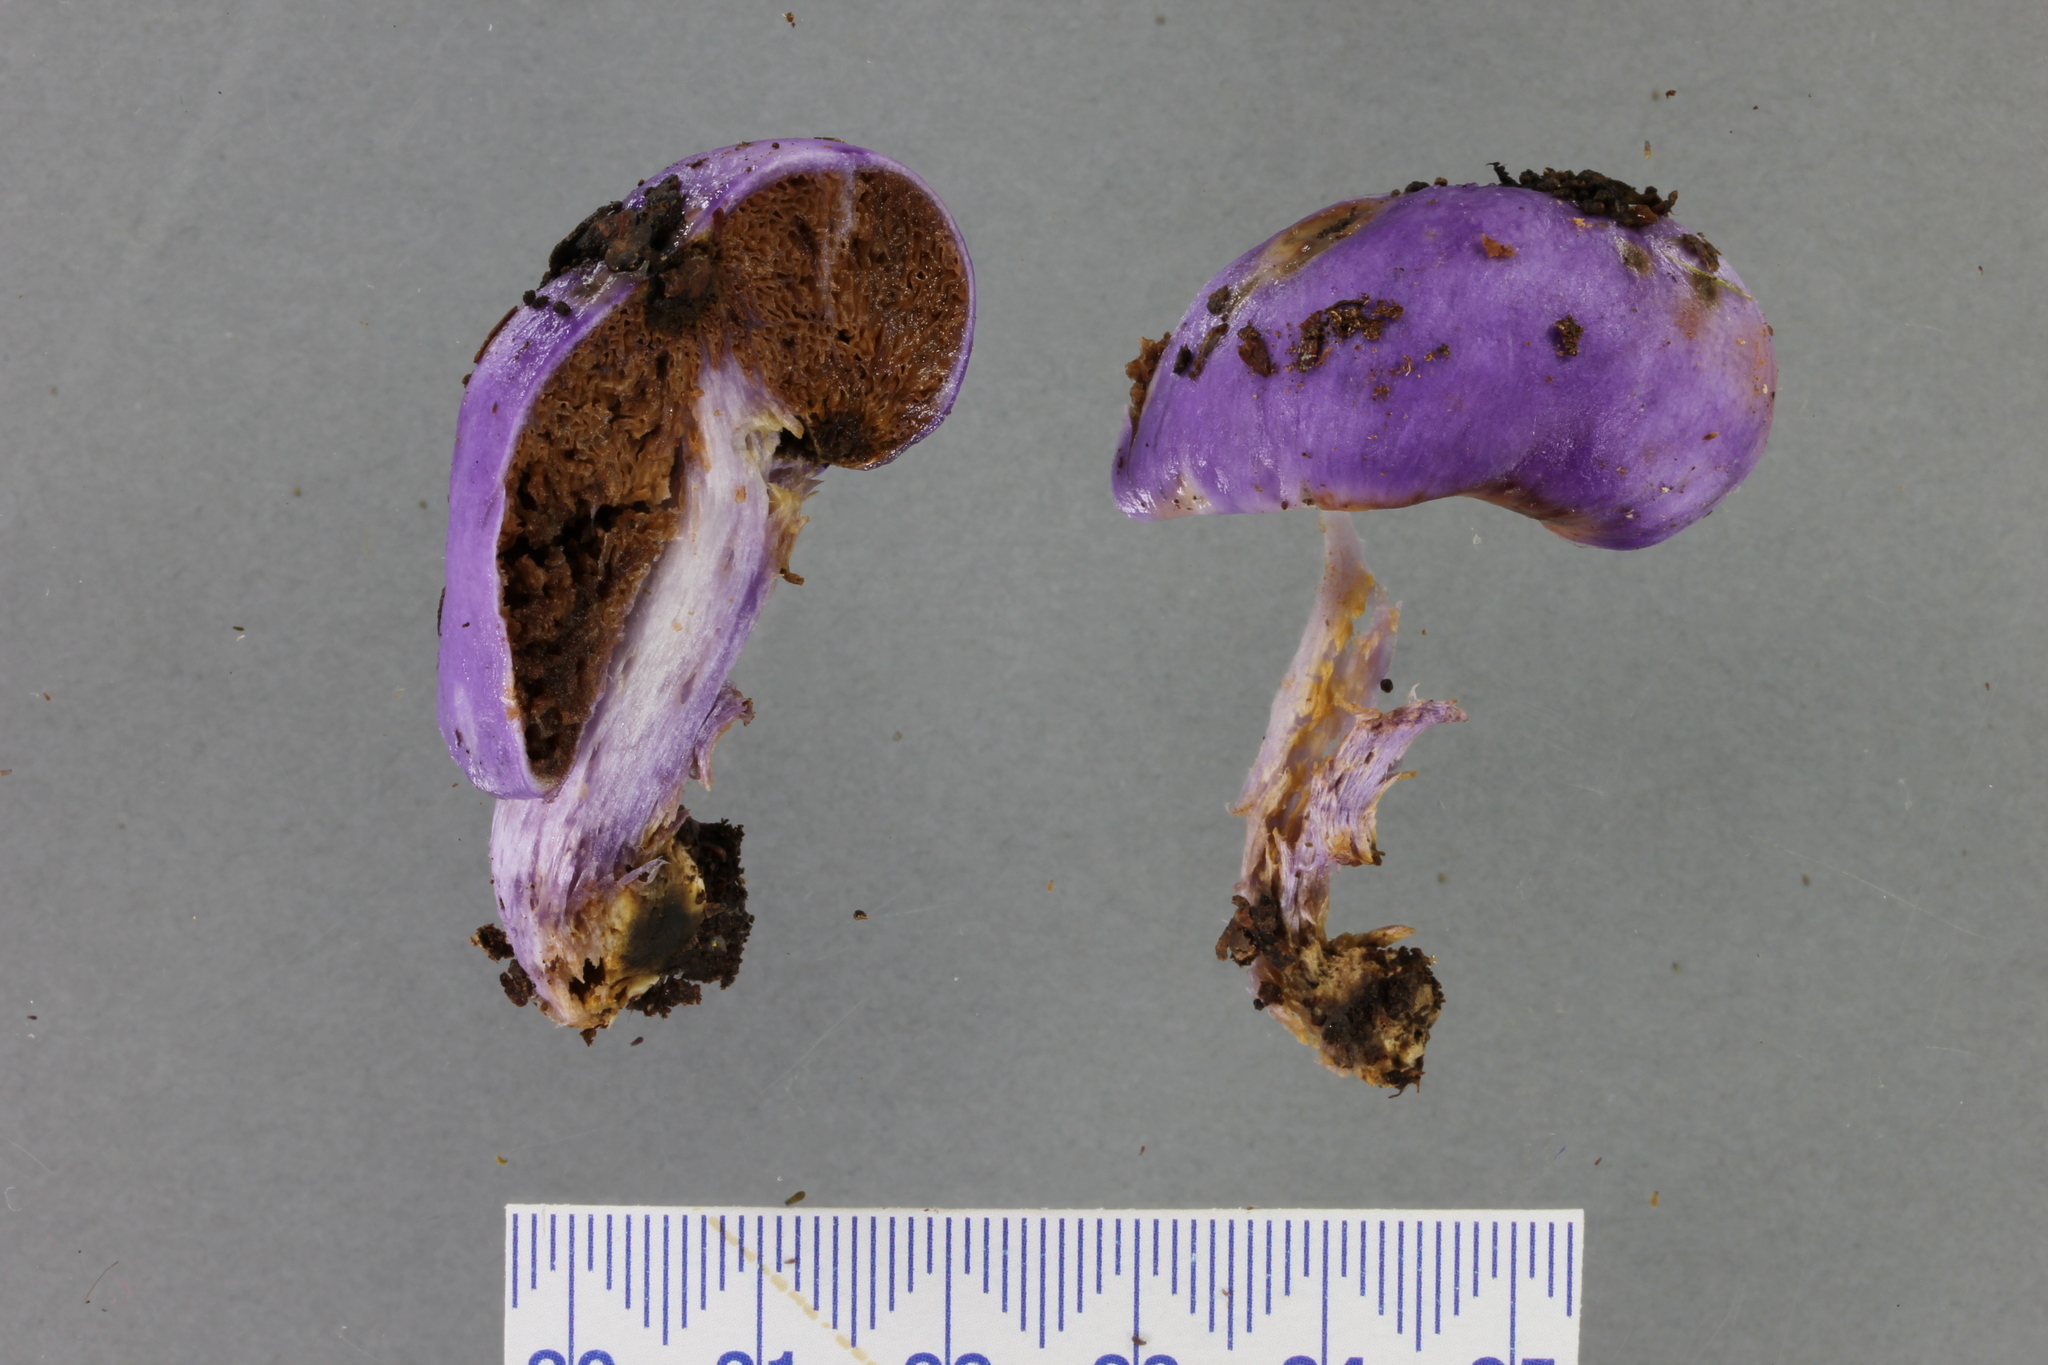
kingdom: Fungi
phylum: Basidiomycota
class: Agaricomycetes
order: Agaricales
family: Cortinariaceae
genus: Cortinarius
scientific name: Cortinarius violaceovolvatus
